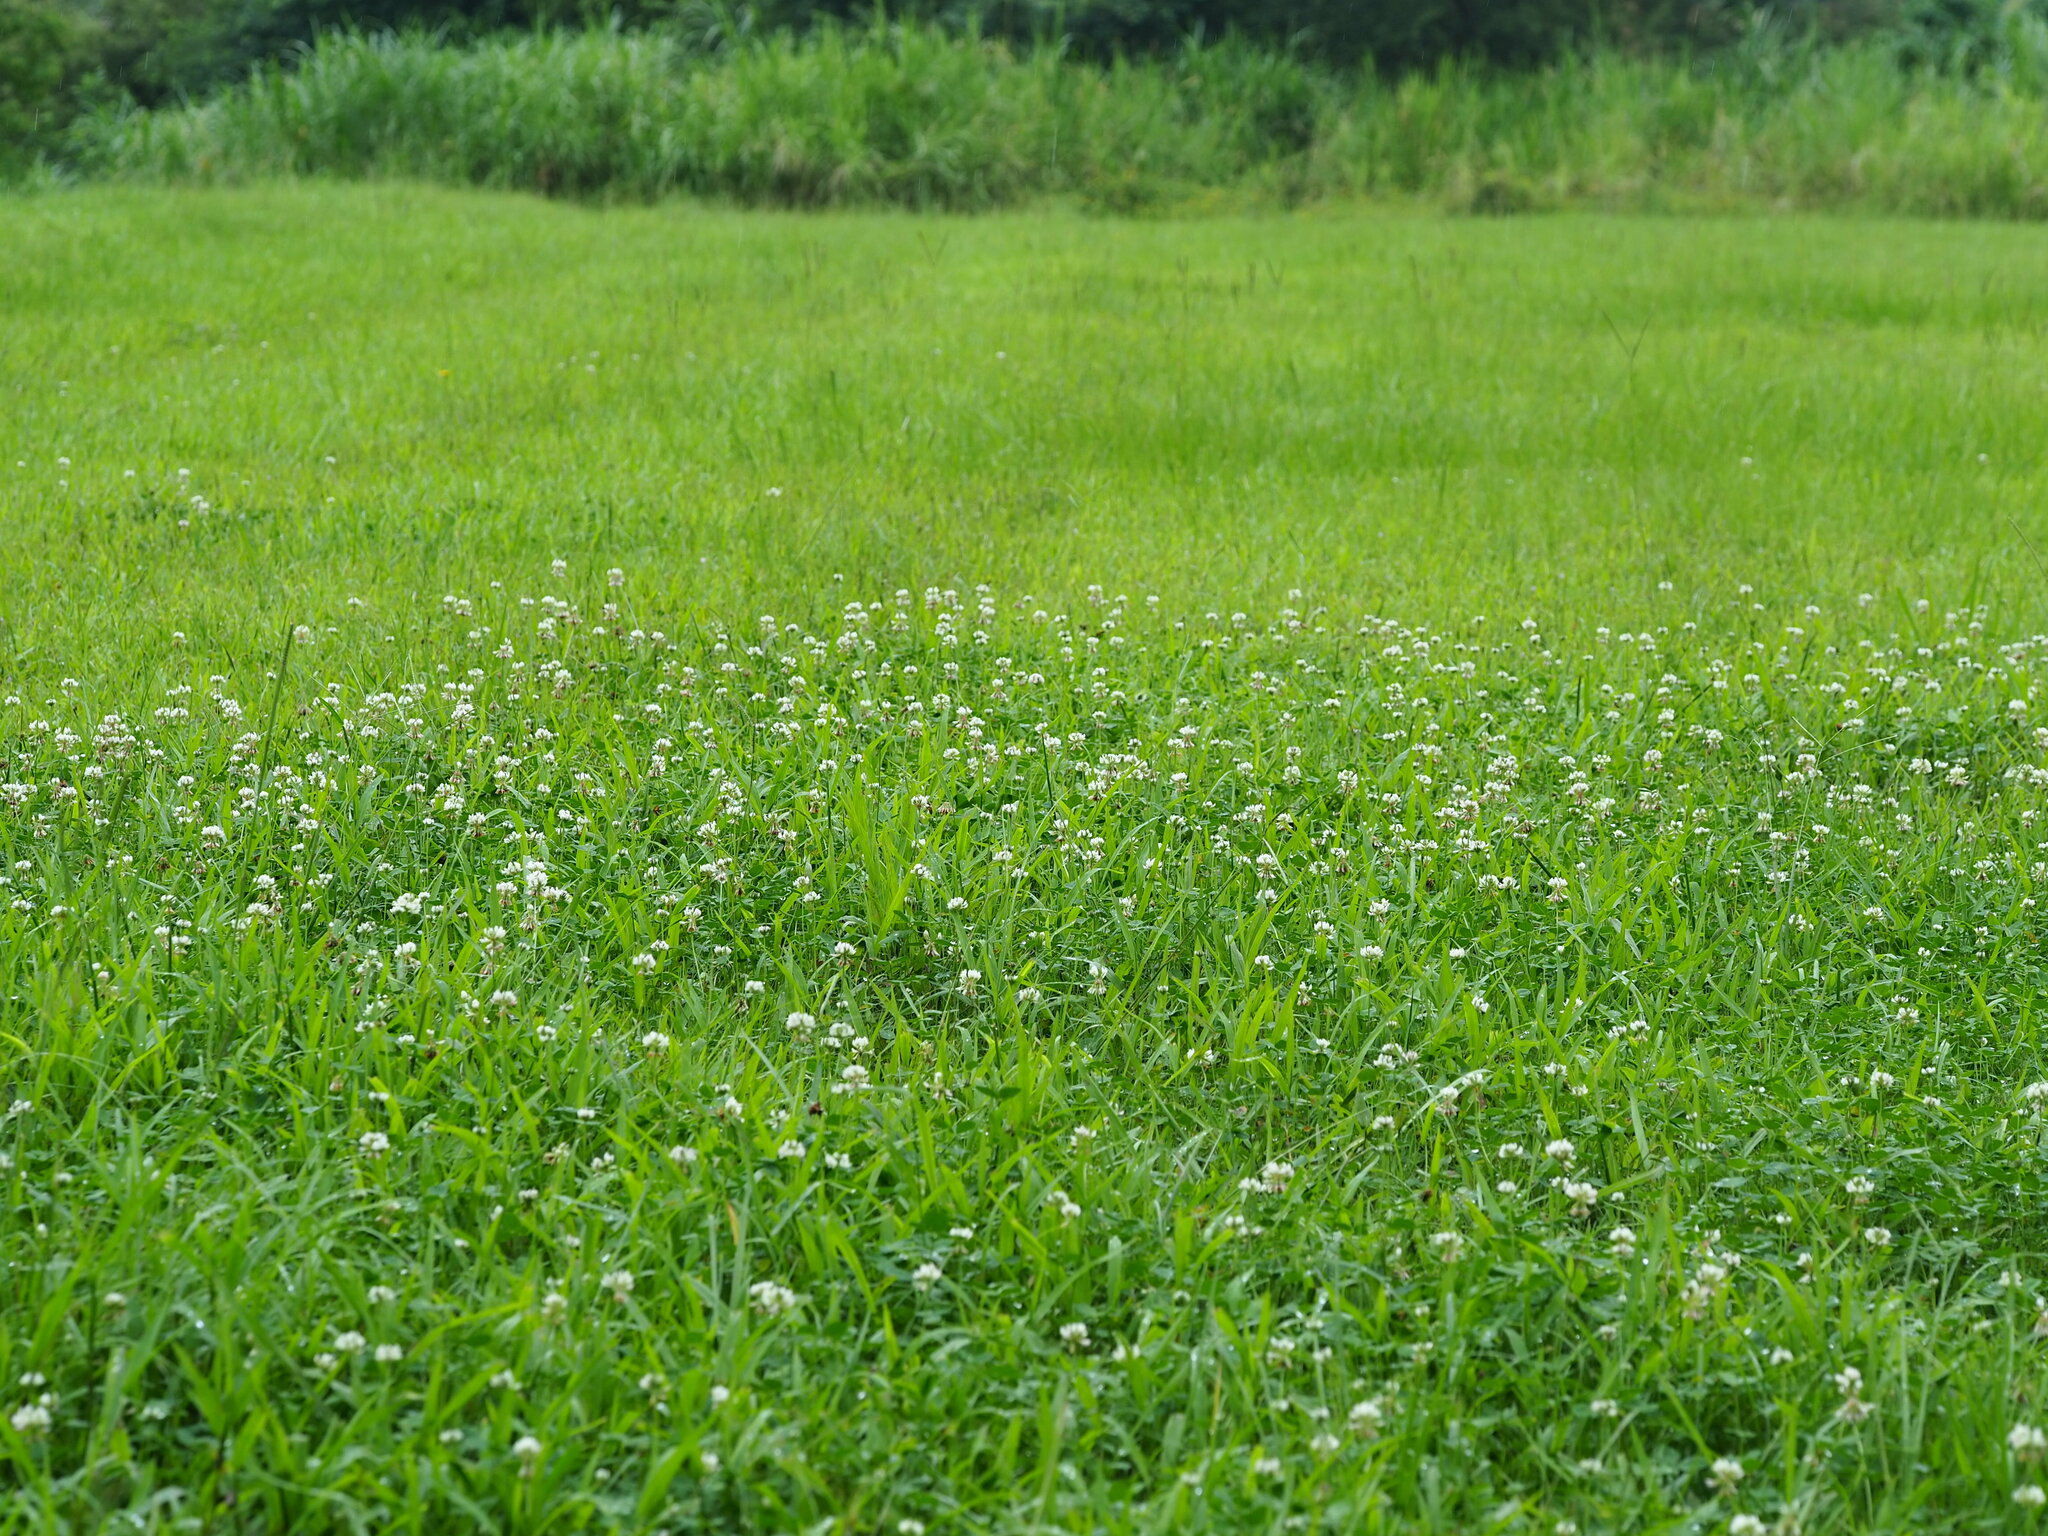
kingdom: Plantae
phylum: Tracheophyta
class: Magnoliopsida
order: Fabales
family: Fabaceae
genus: Trifolium
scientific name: Trifolium repens
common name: White clover
